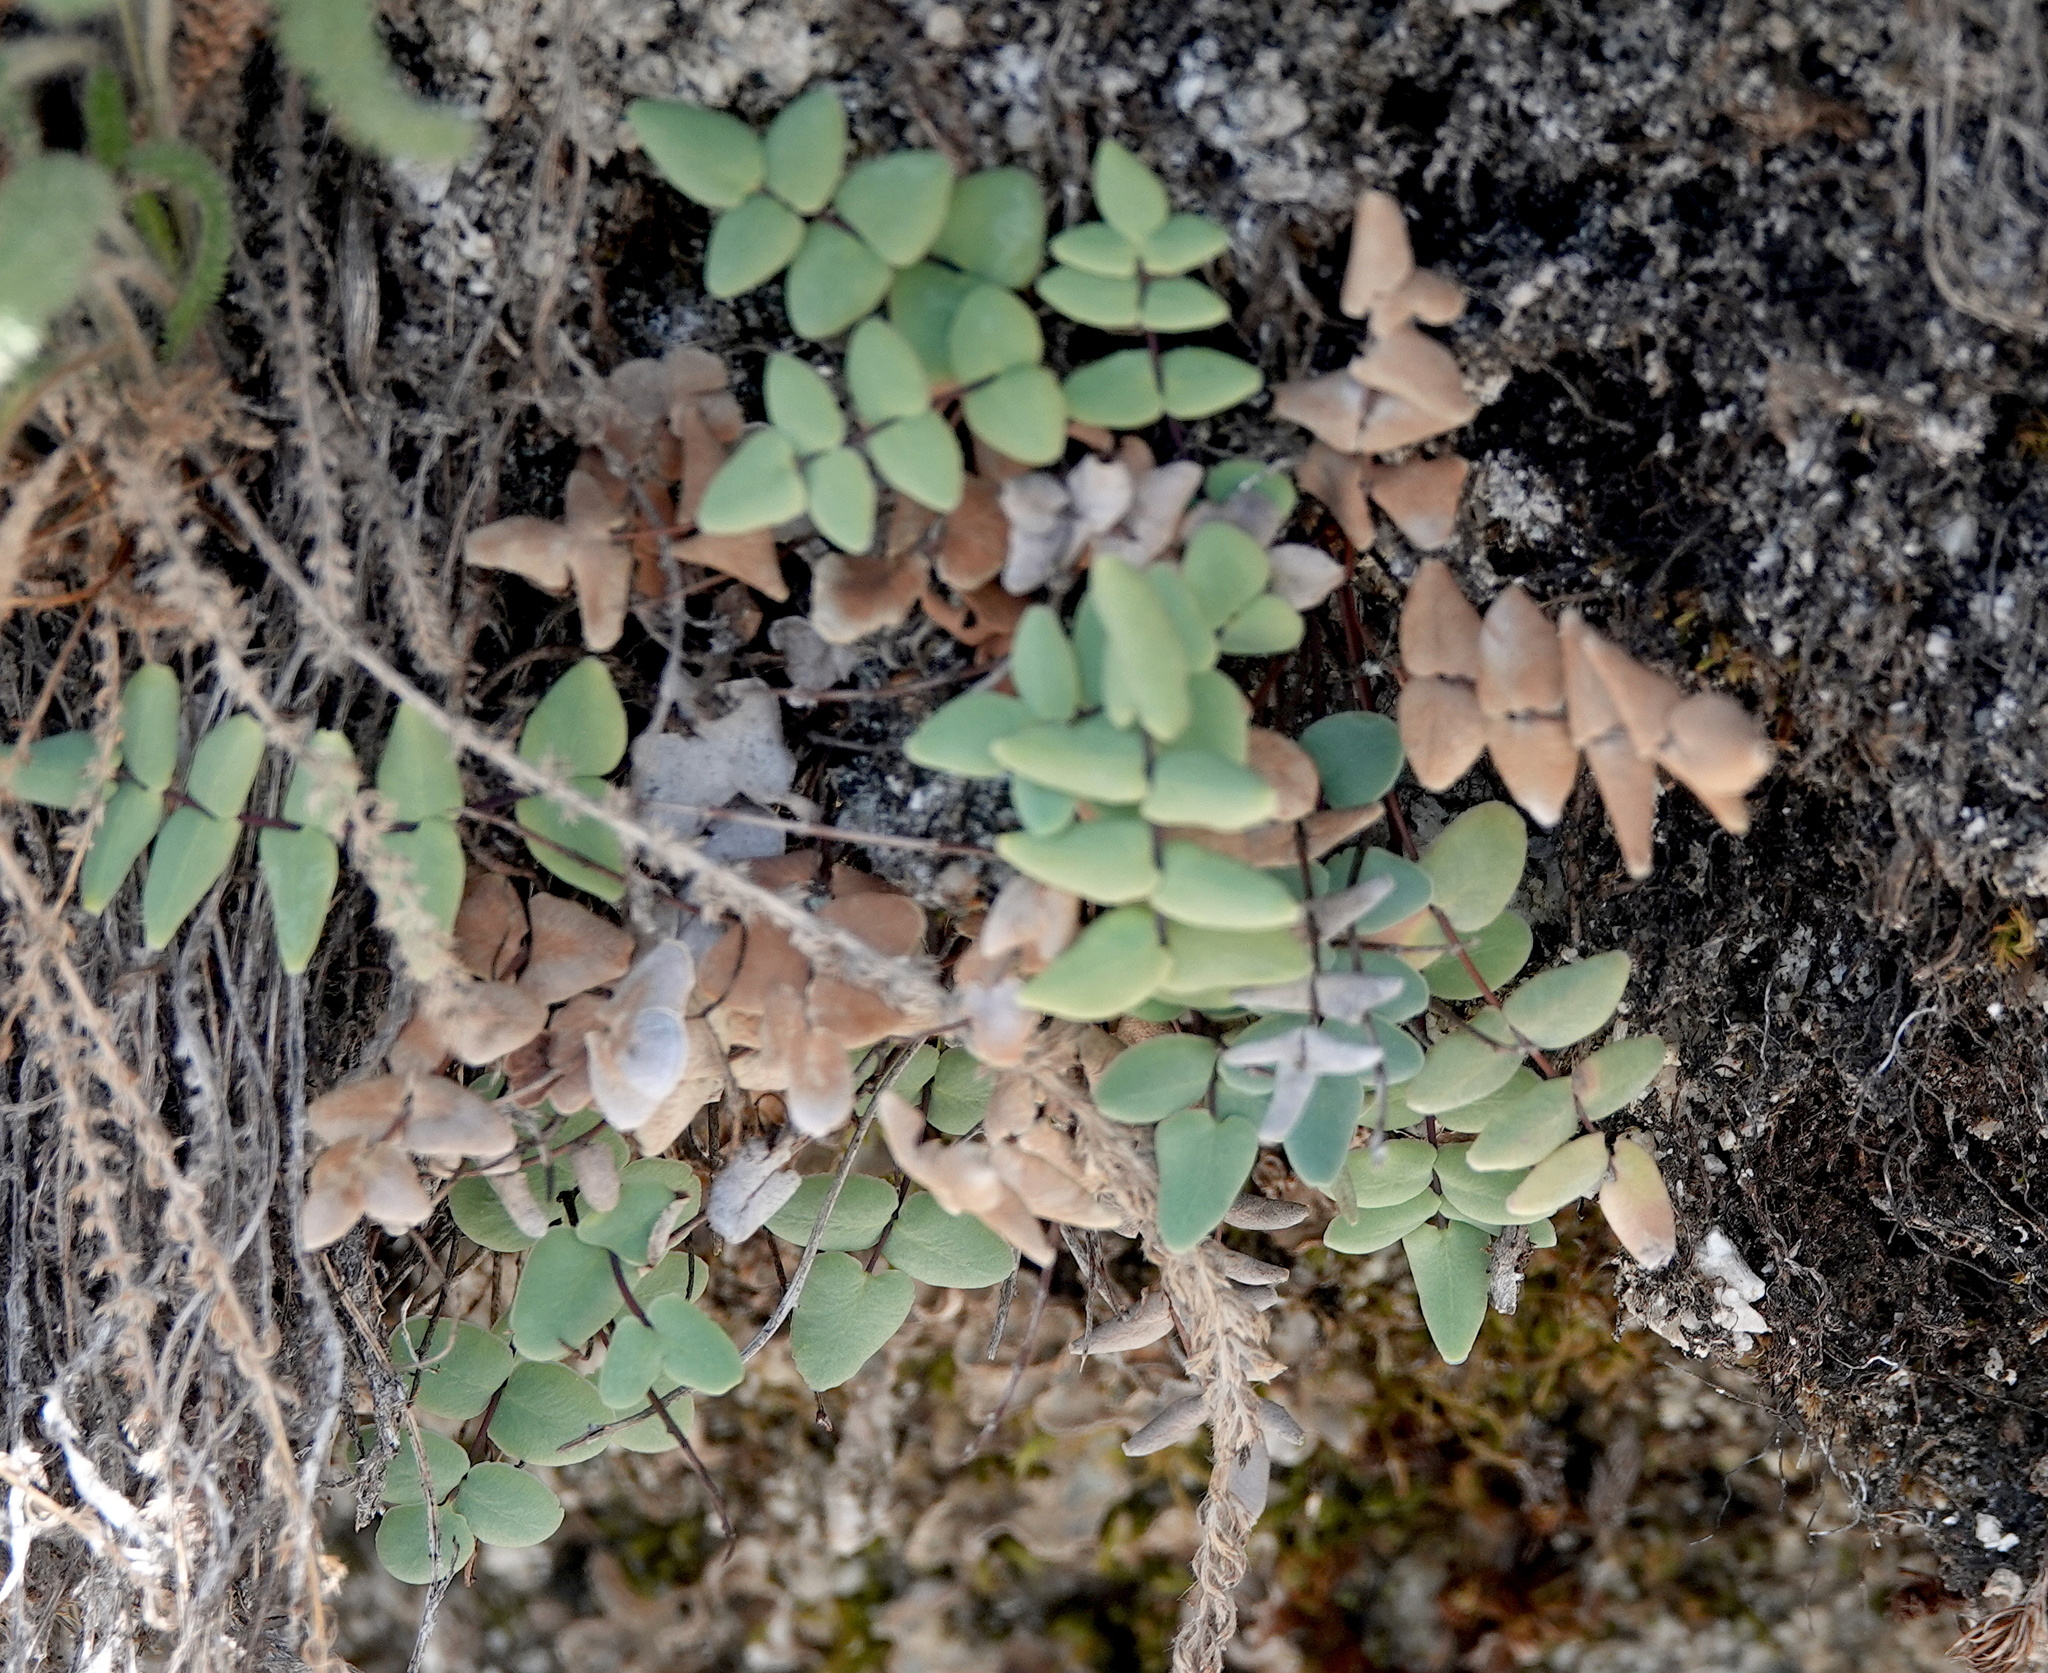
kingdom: Plantae
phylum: Tracheophyta
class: Polypodiopsida
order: Polypodiales
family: Pteridaceae
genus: Pellaea
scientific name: Pellaea bridgesii
